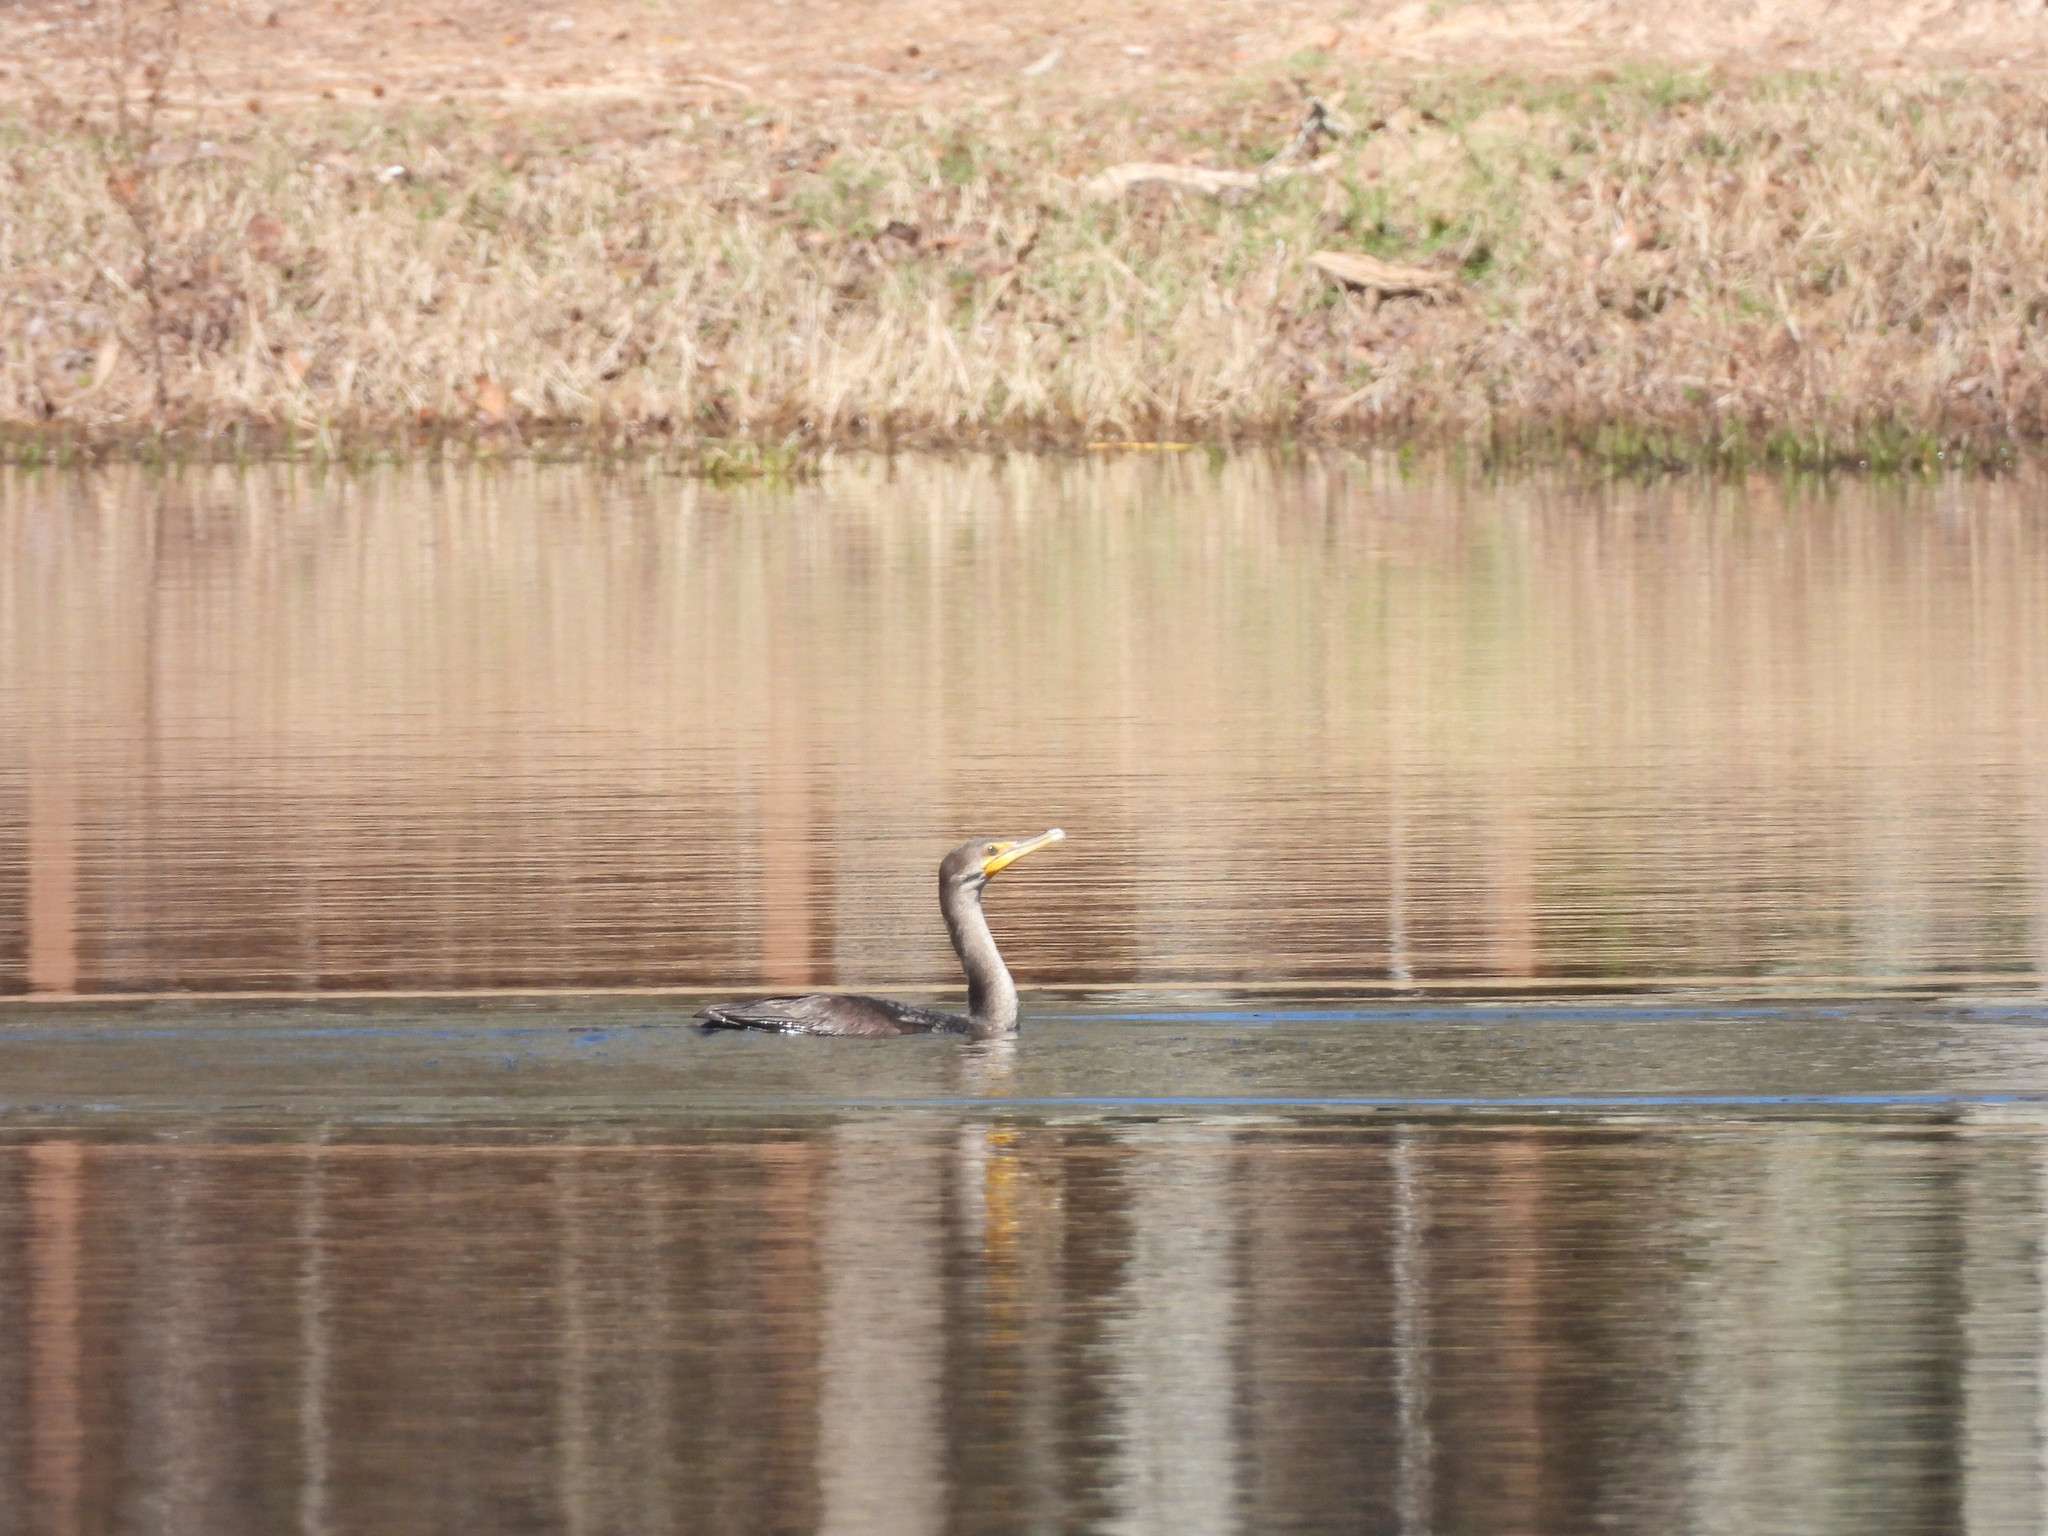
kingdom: Animalia
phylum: Chordata
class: Aves
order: Suliformes
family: Phalacrocoracidae
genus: Phalacrocorax
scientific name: Phalacrocorax auritus
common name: Double-crested cormorant
